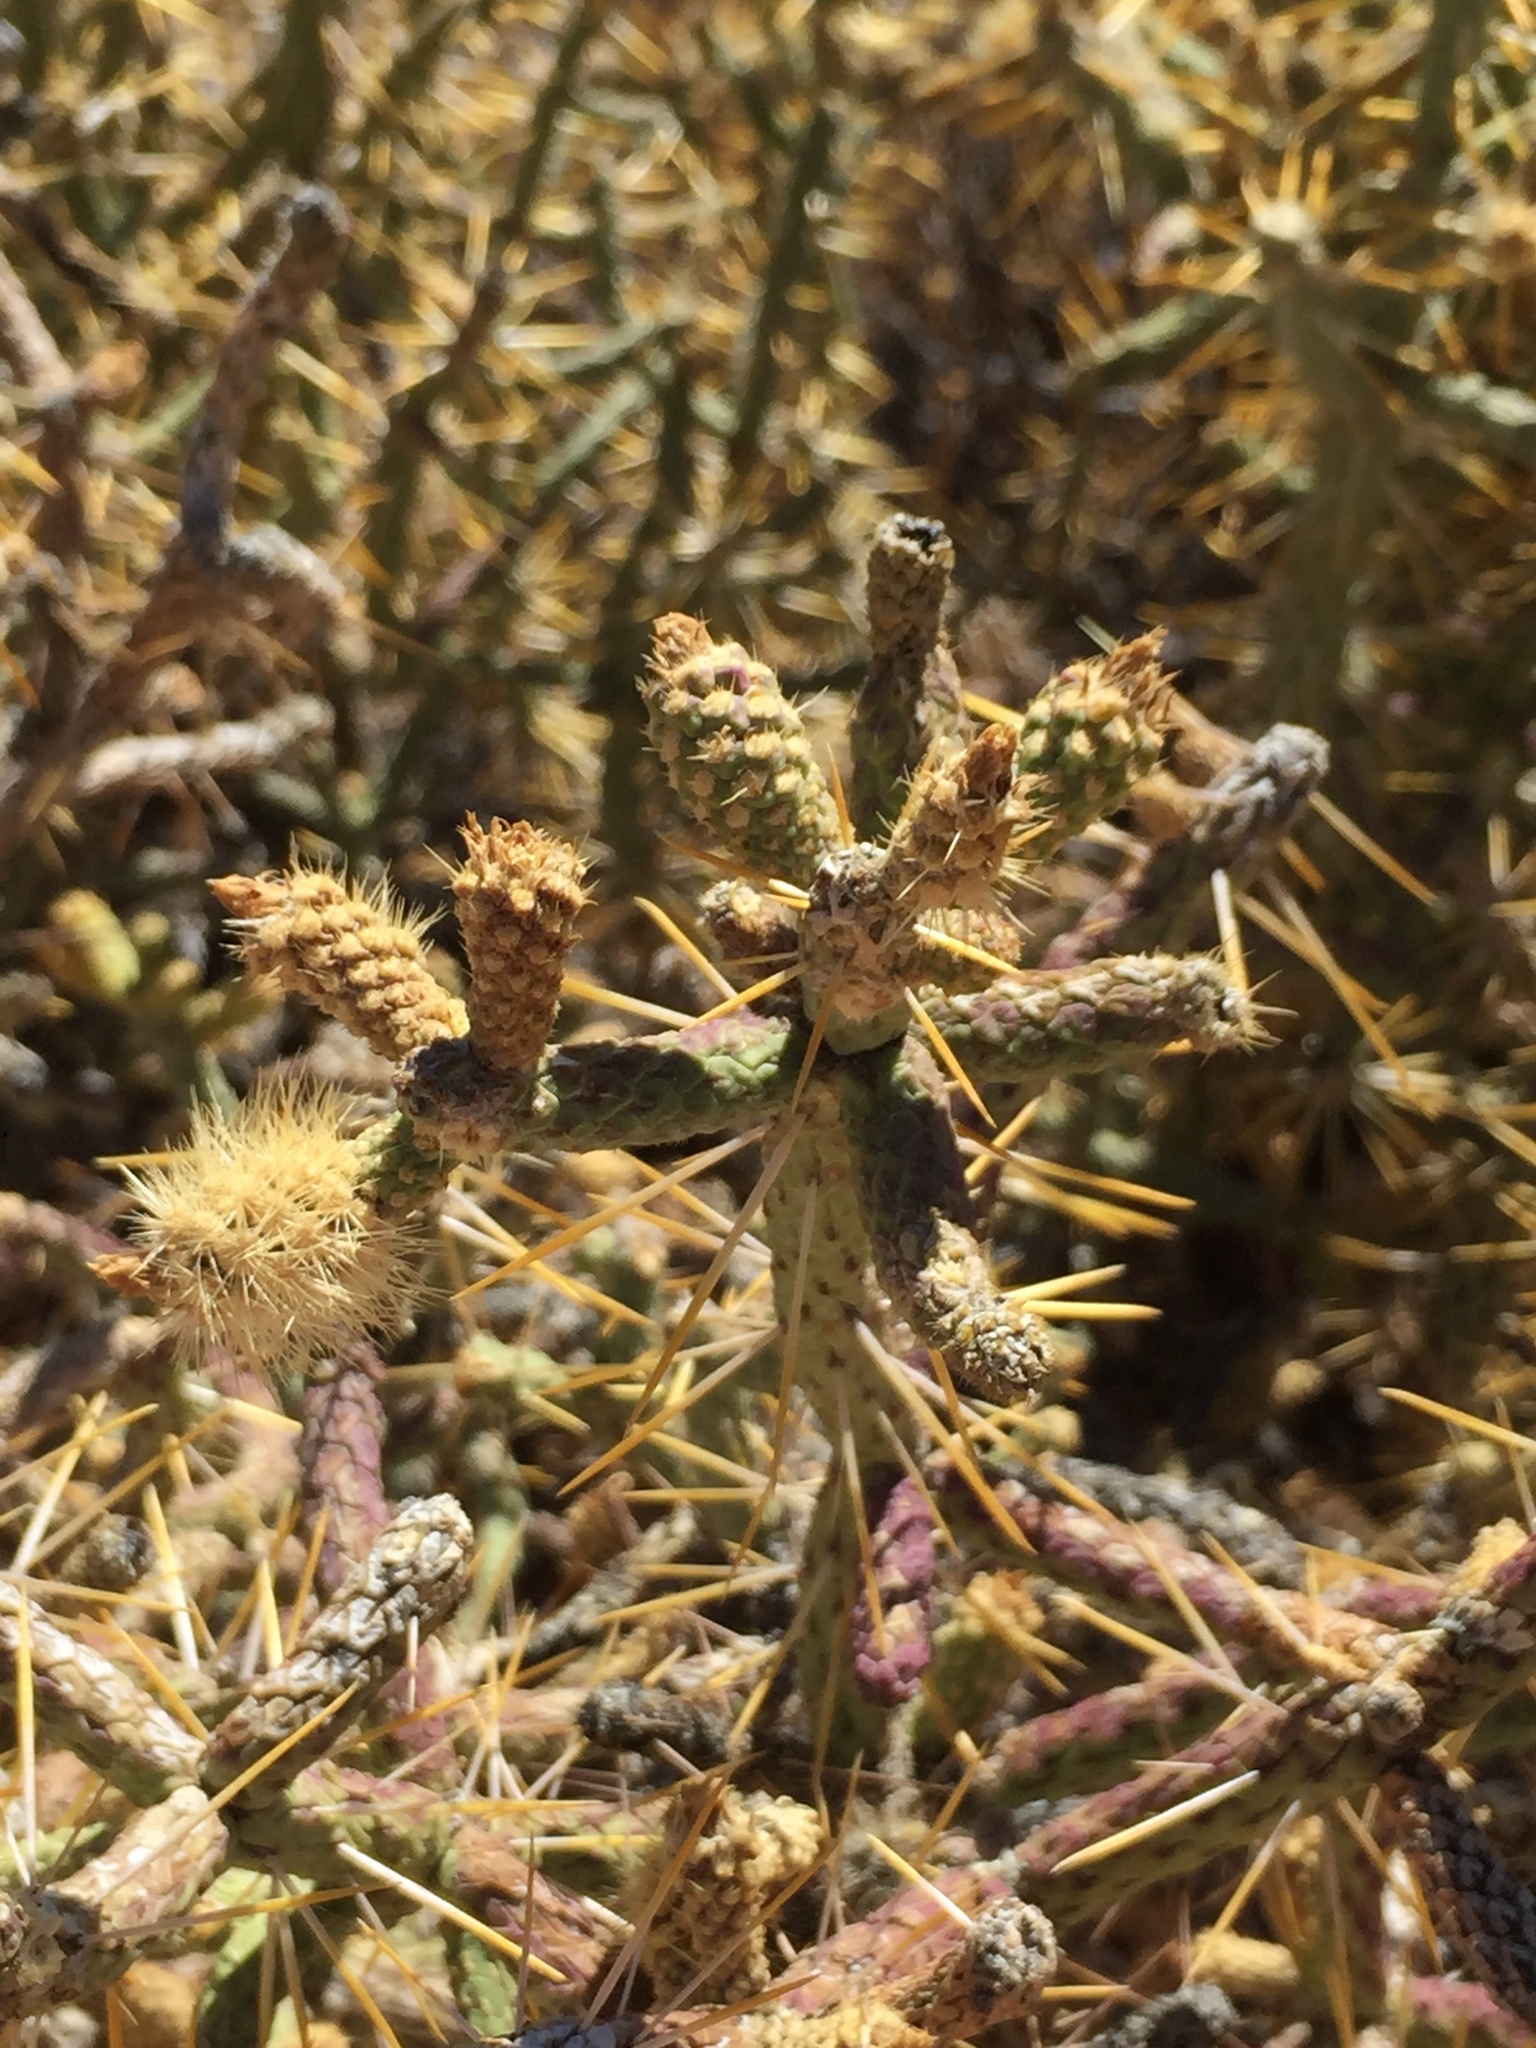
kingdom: Plantae
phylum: Tracheophyta
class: Magnoliopsida
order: Caryophyllales
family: Cactaceae
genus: Cylindropuntia
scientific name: Cylindropuntia ramosissima
